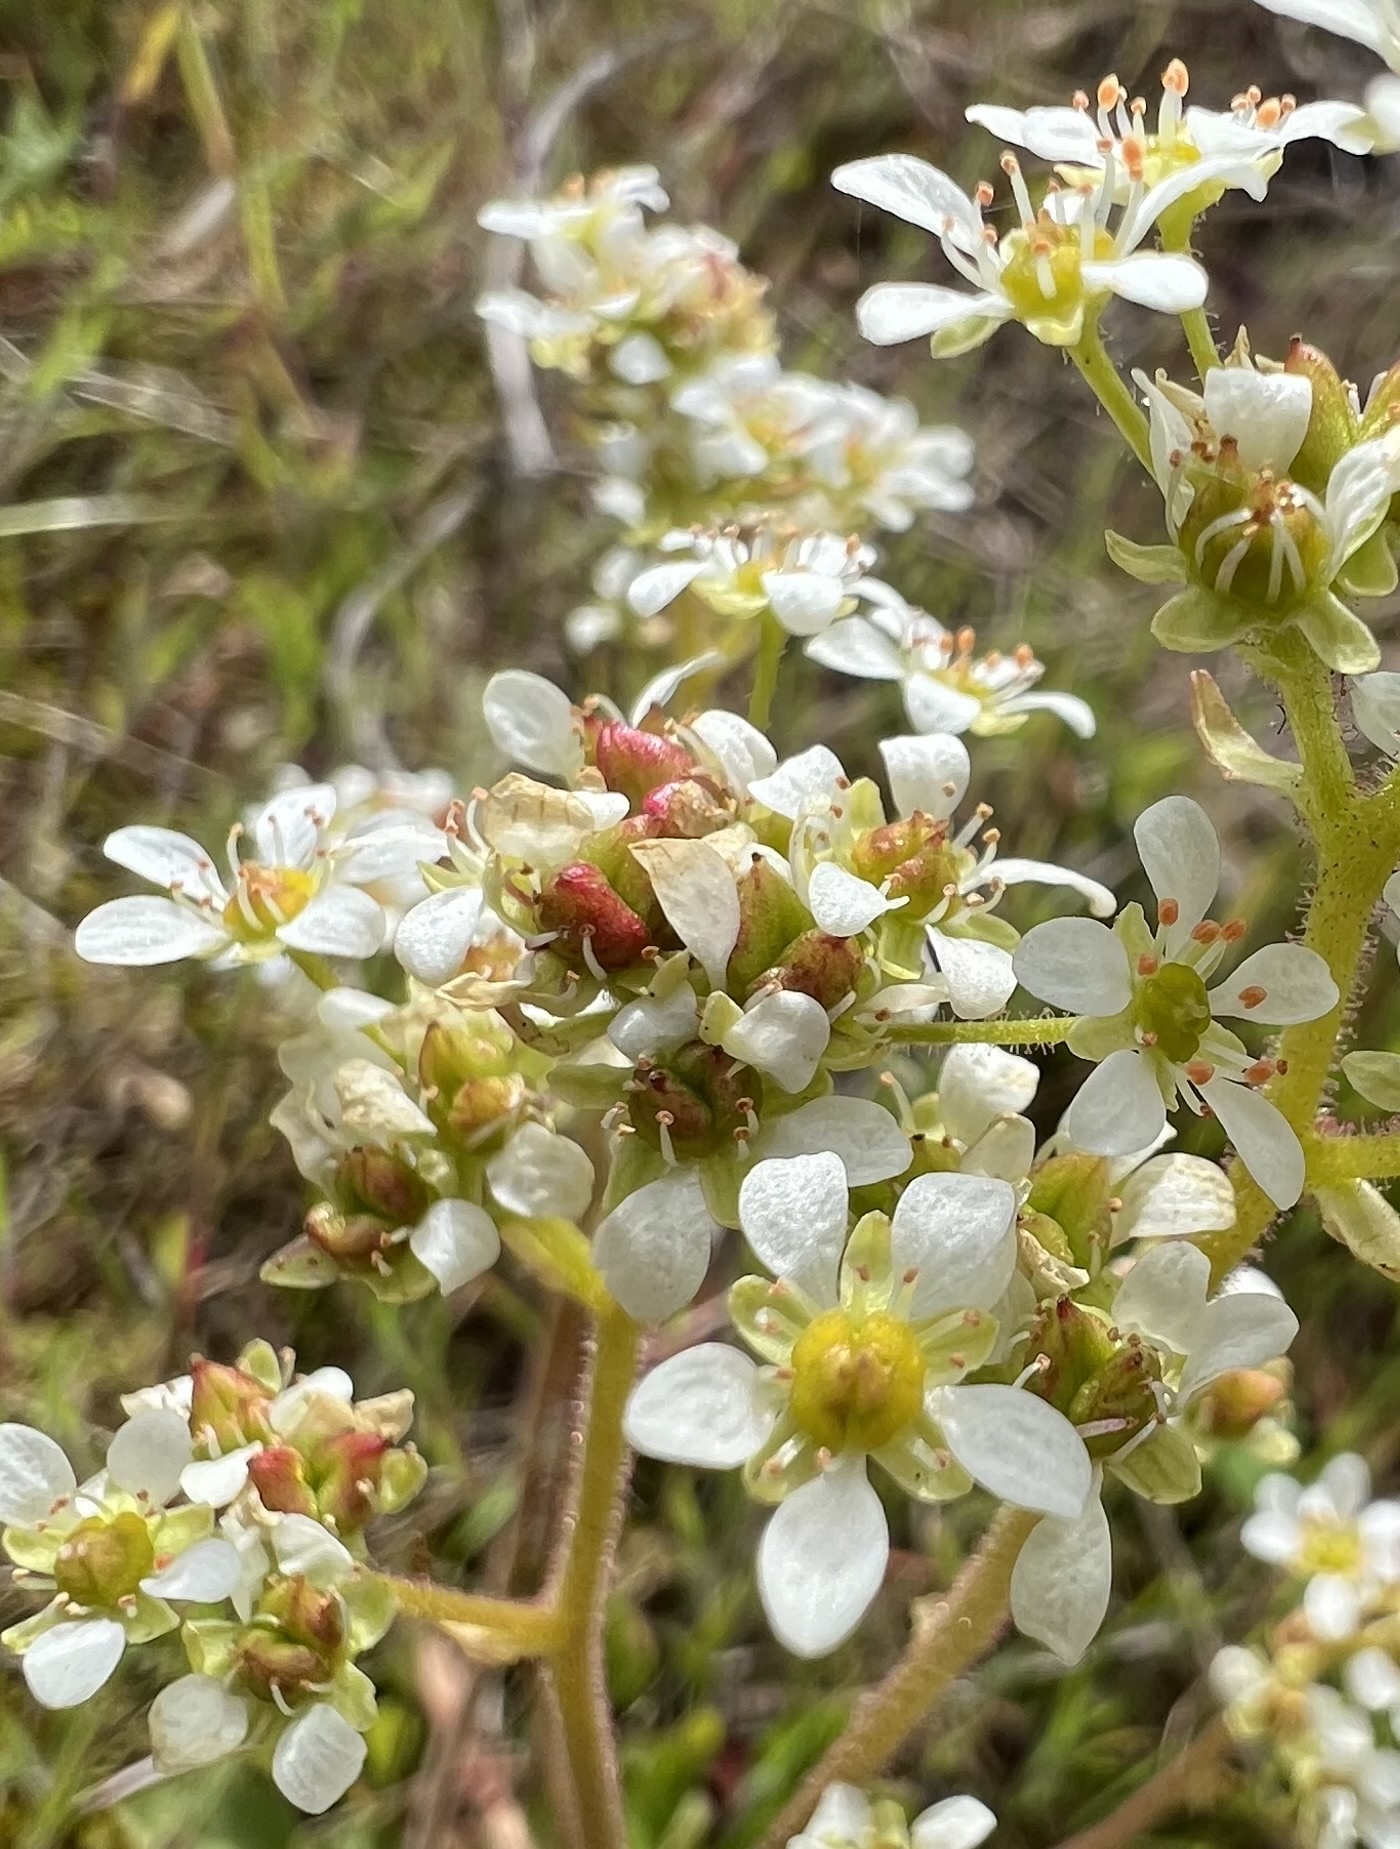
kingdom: Plantae
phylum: Tracheophyta
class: Magnoliopsida
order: Saxifragales
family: Saxifragaceae
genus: Micranthes
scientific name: Micranthes integrifolia
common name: Wholeleaf saxifrage
